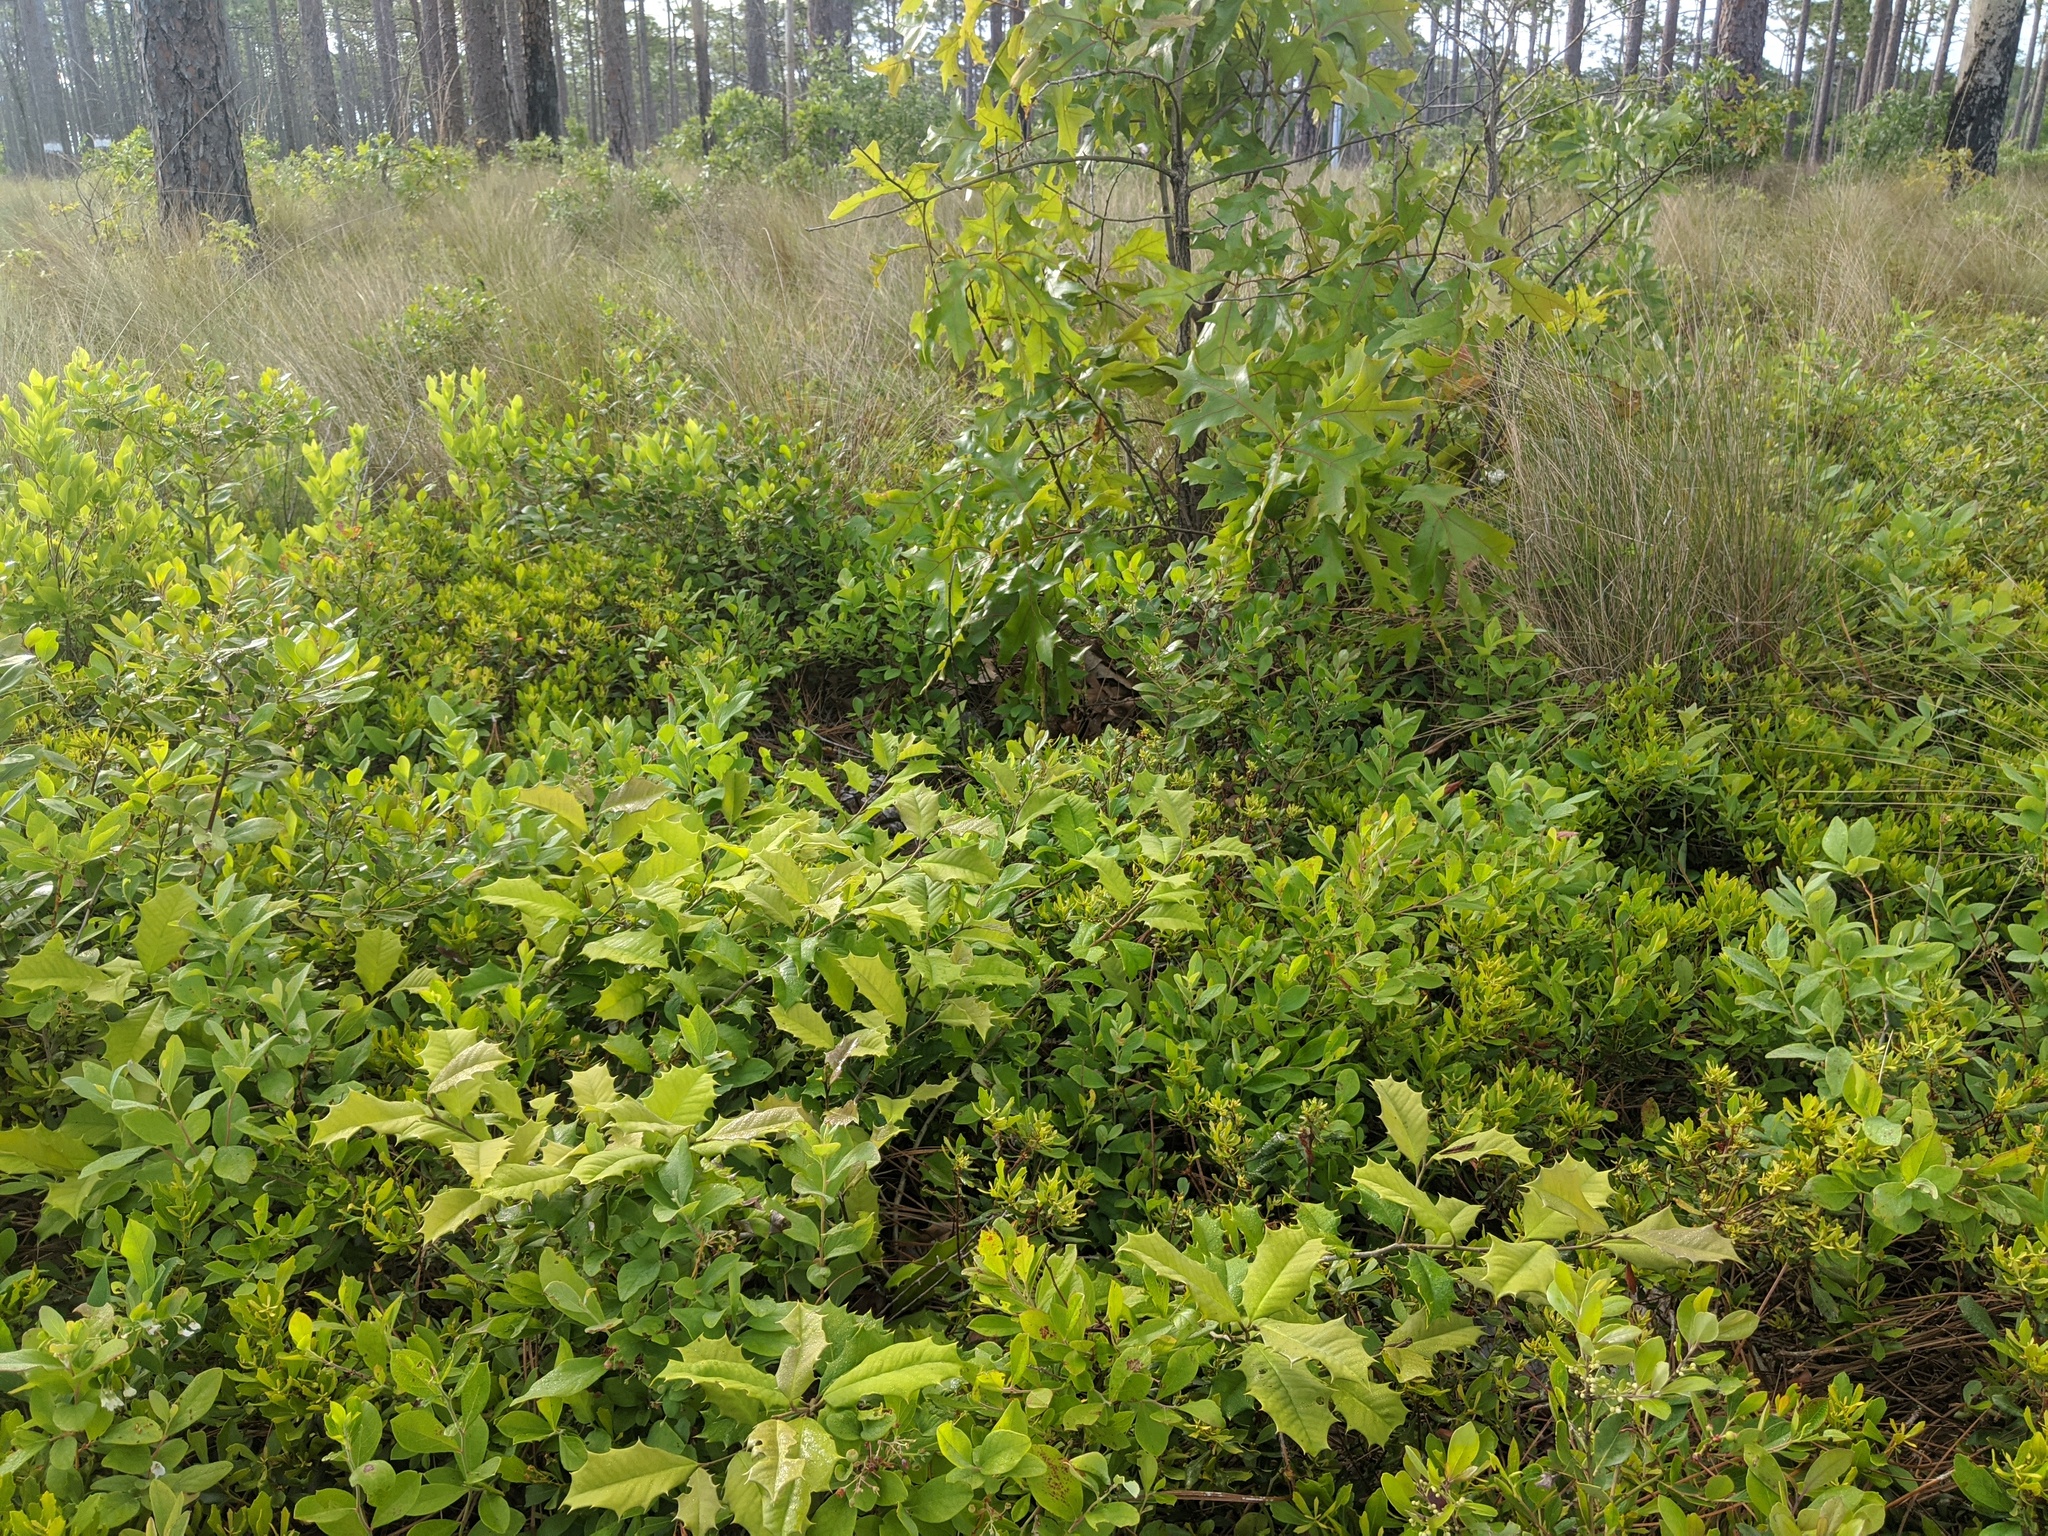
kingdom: Plantae
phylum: Tracheophyta
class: Magnoliopsida
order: Aquifoliales
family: Aquifoliaceae
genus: Ilex
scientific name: Ilex opaca
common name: American holly
